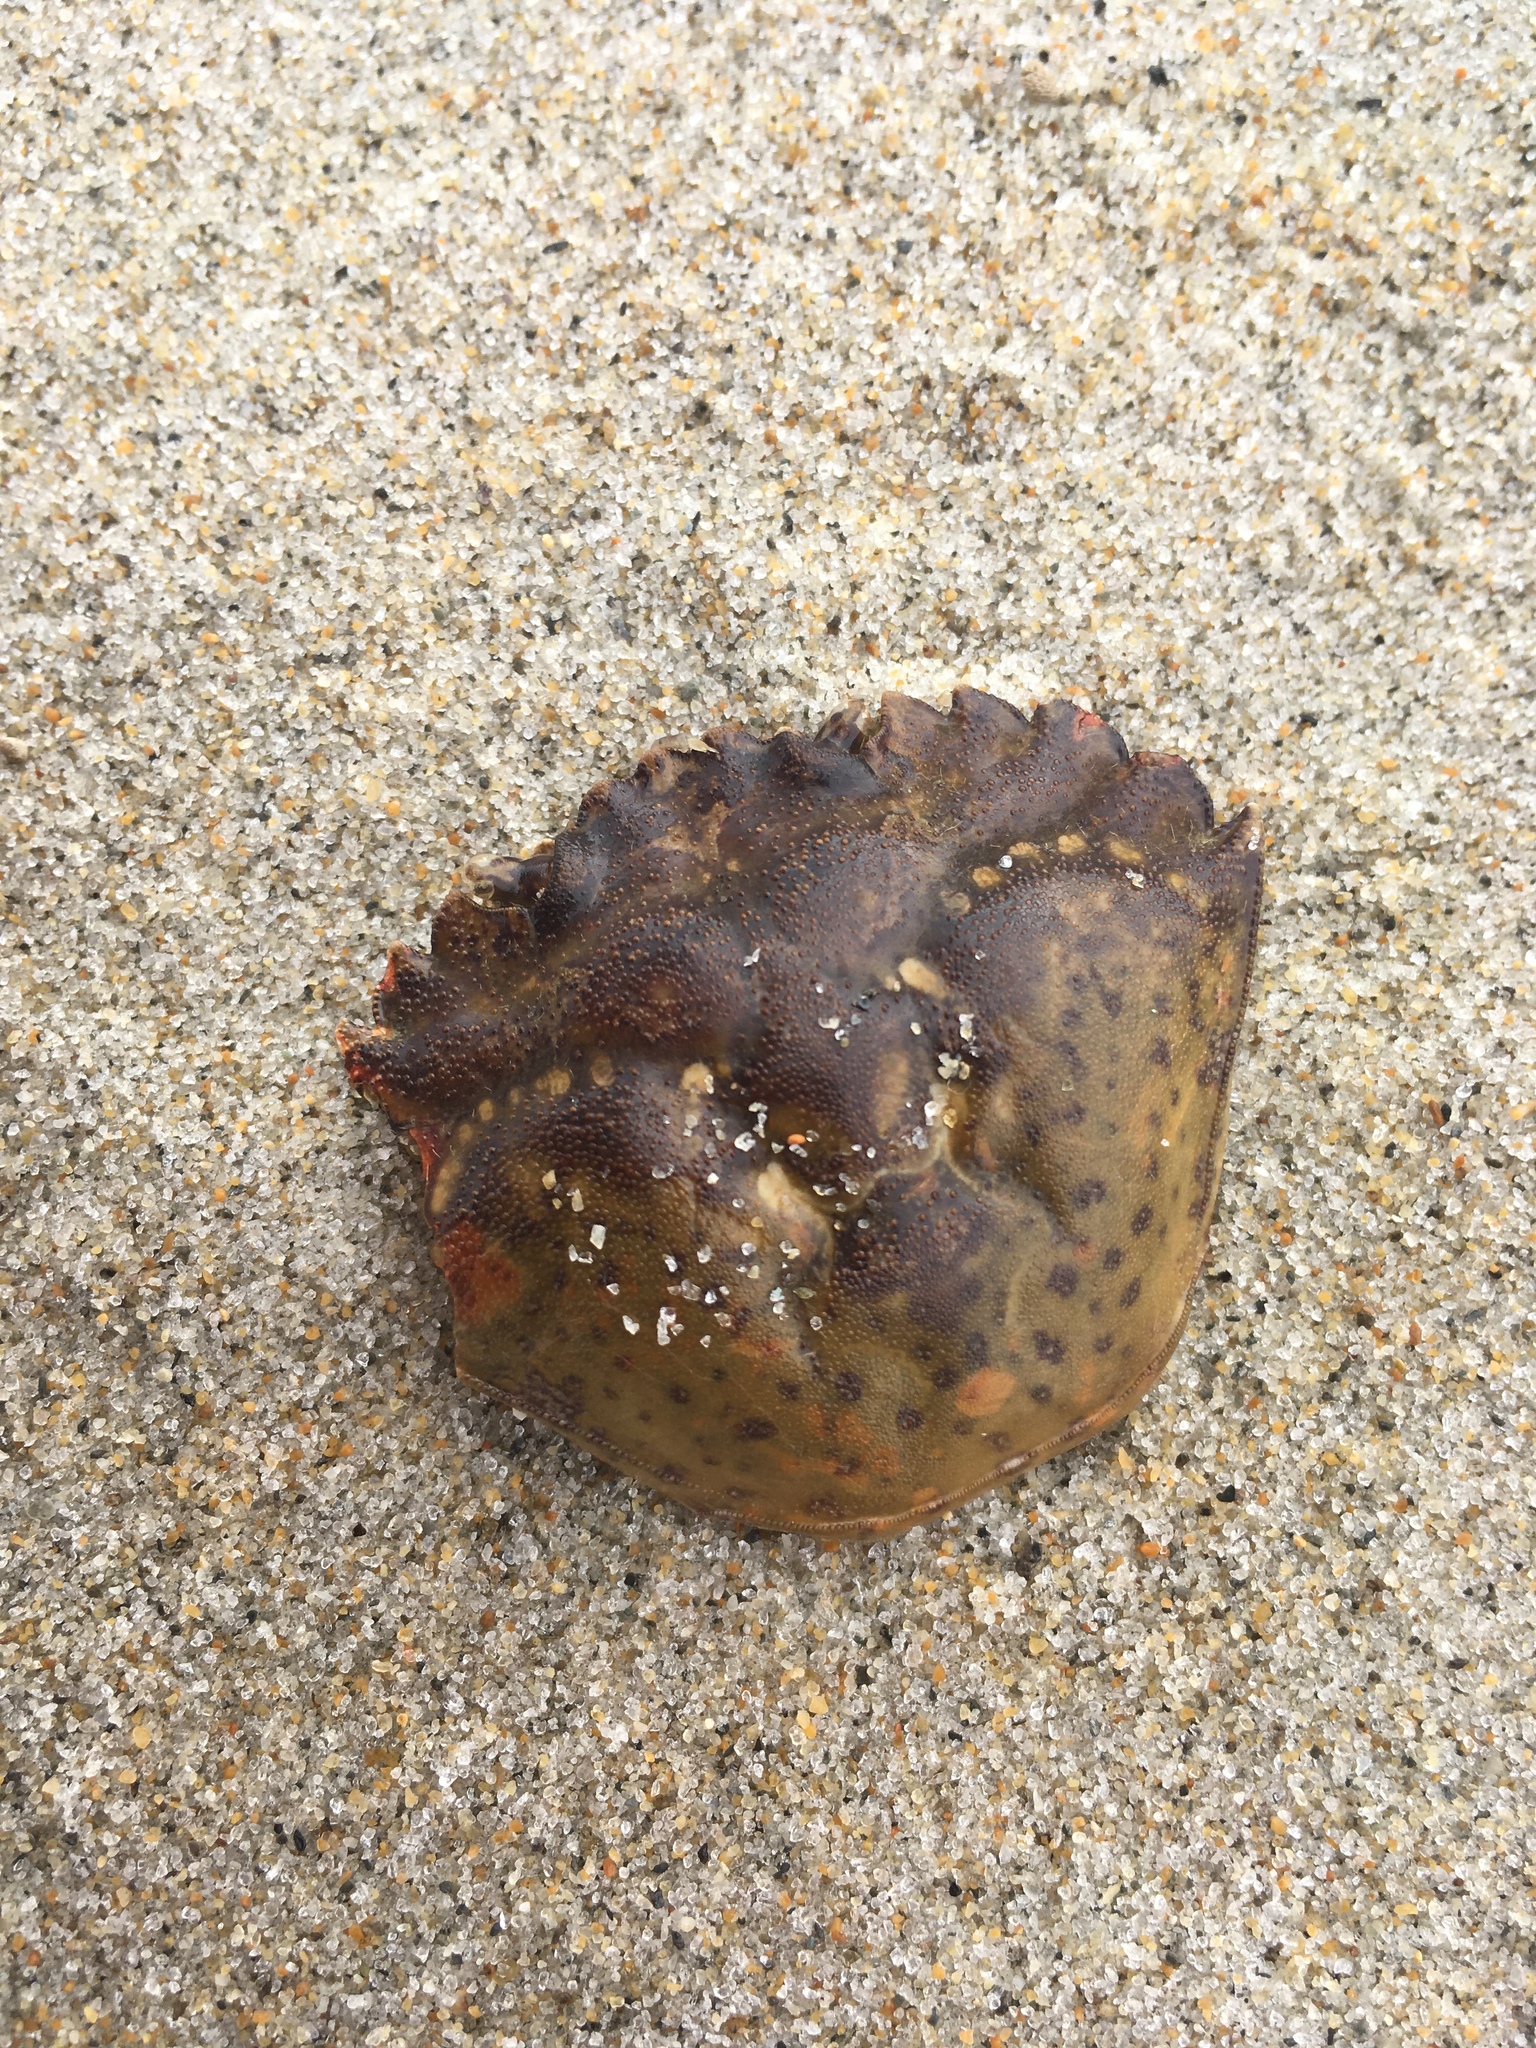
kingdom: Animalia
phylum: Arthropoda
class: Malacostraca
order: Decapoda
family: Carcinidae
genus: Carcinus
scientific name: Carcinus maenas
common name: European green crab
